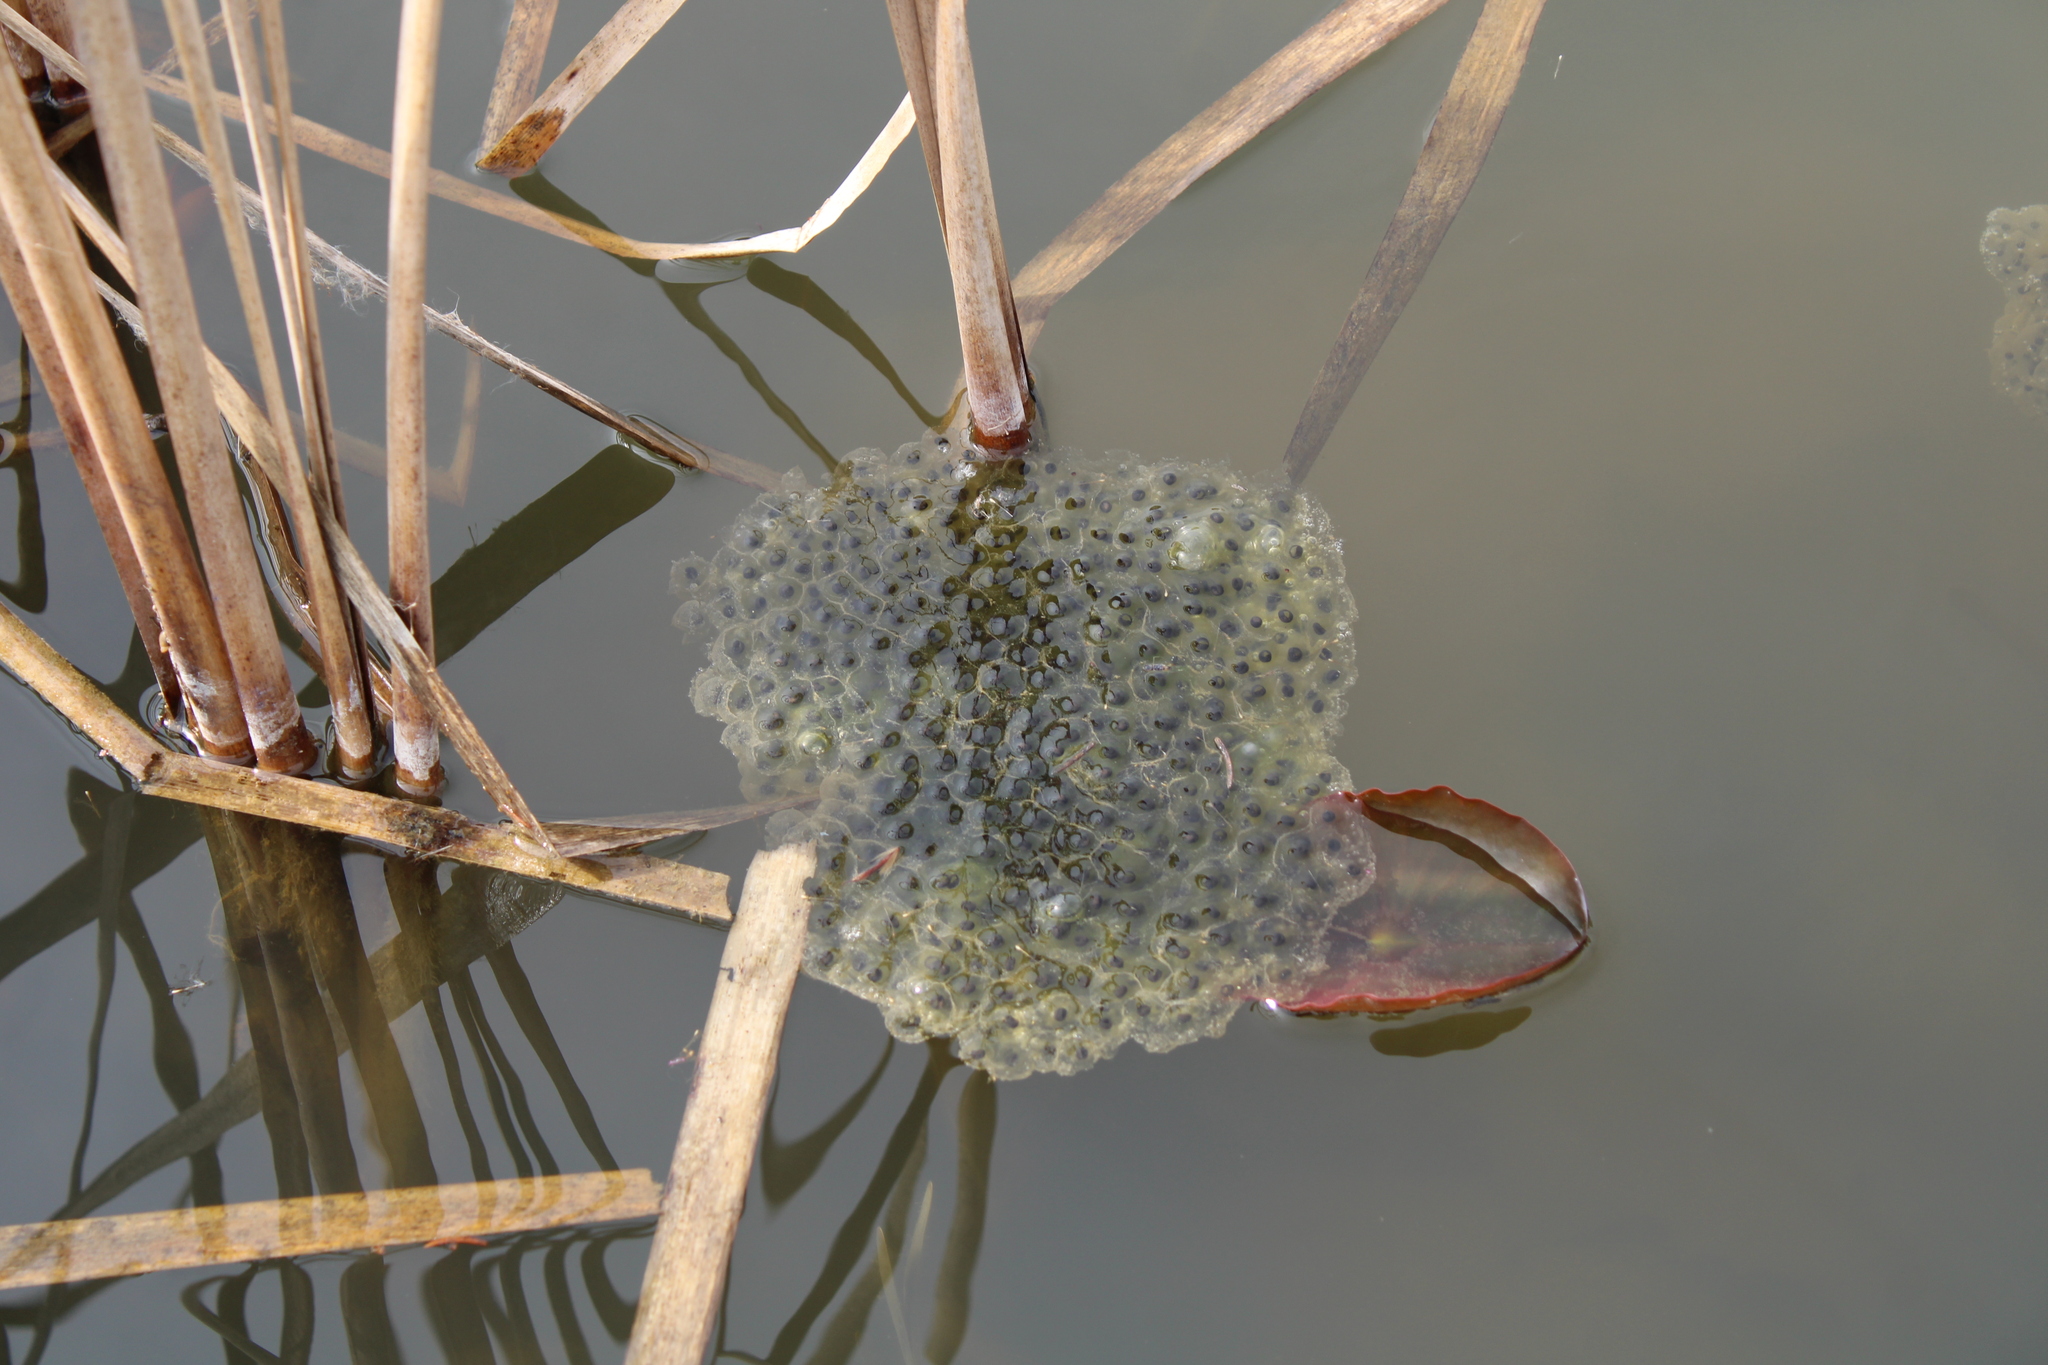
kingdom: Animalia
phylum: Chordata
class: Amphibia
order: Anura
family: Ranidae
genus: Rana
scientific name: Rana dalmatina
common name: Agile frog
